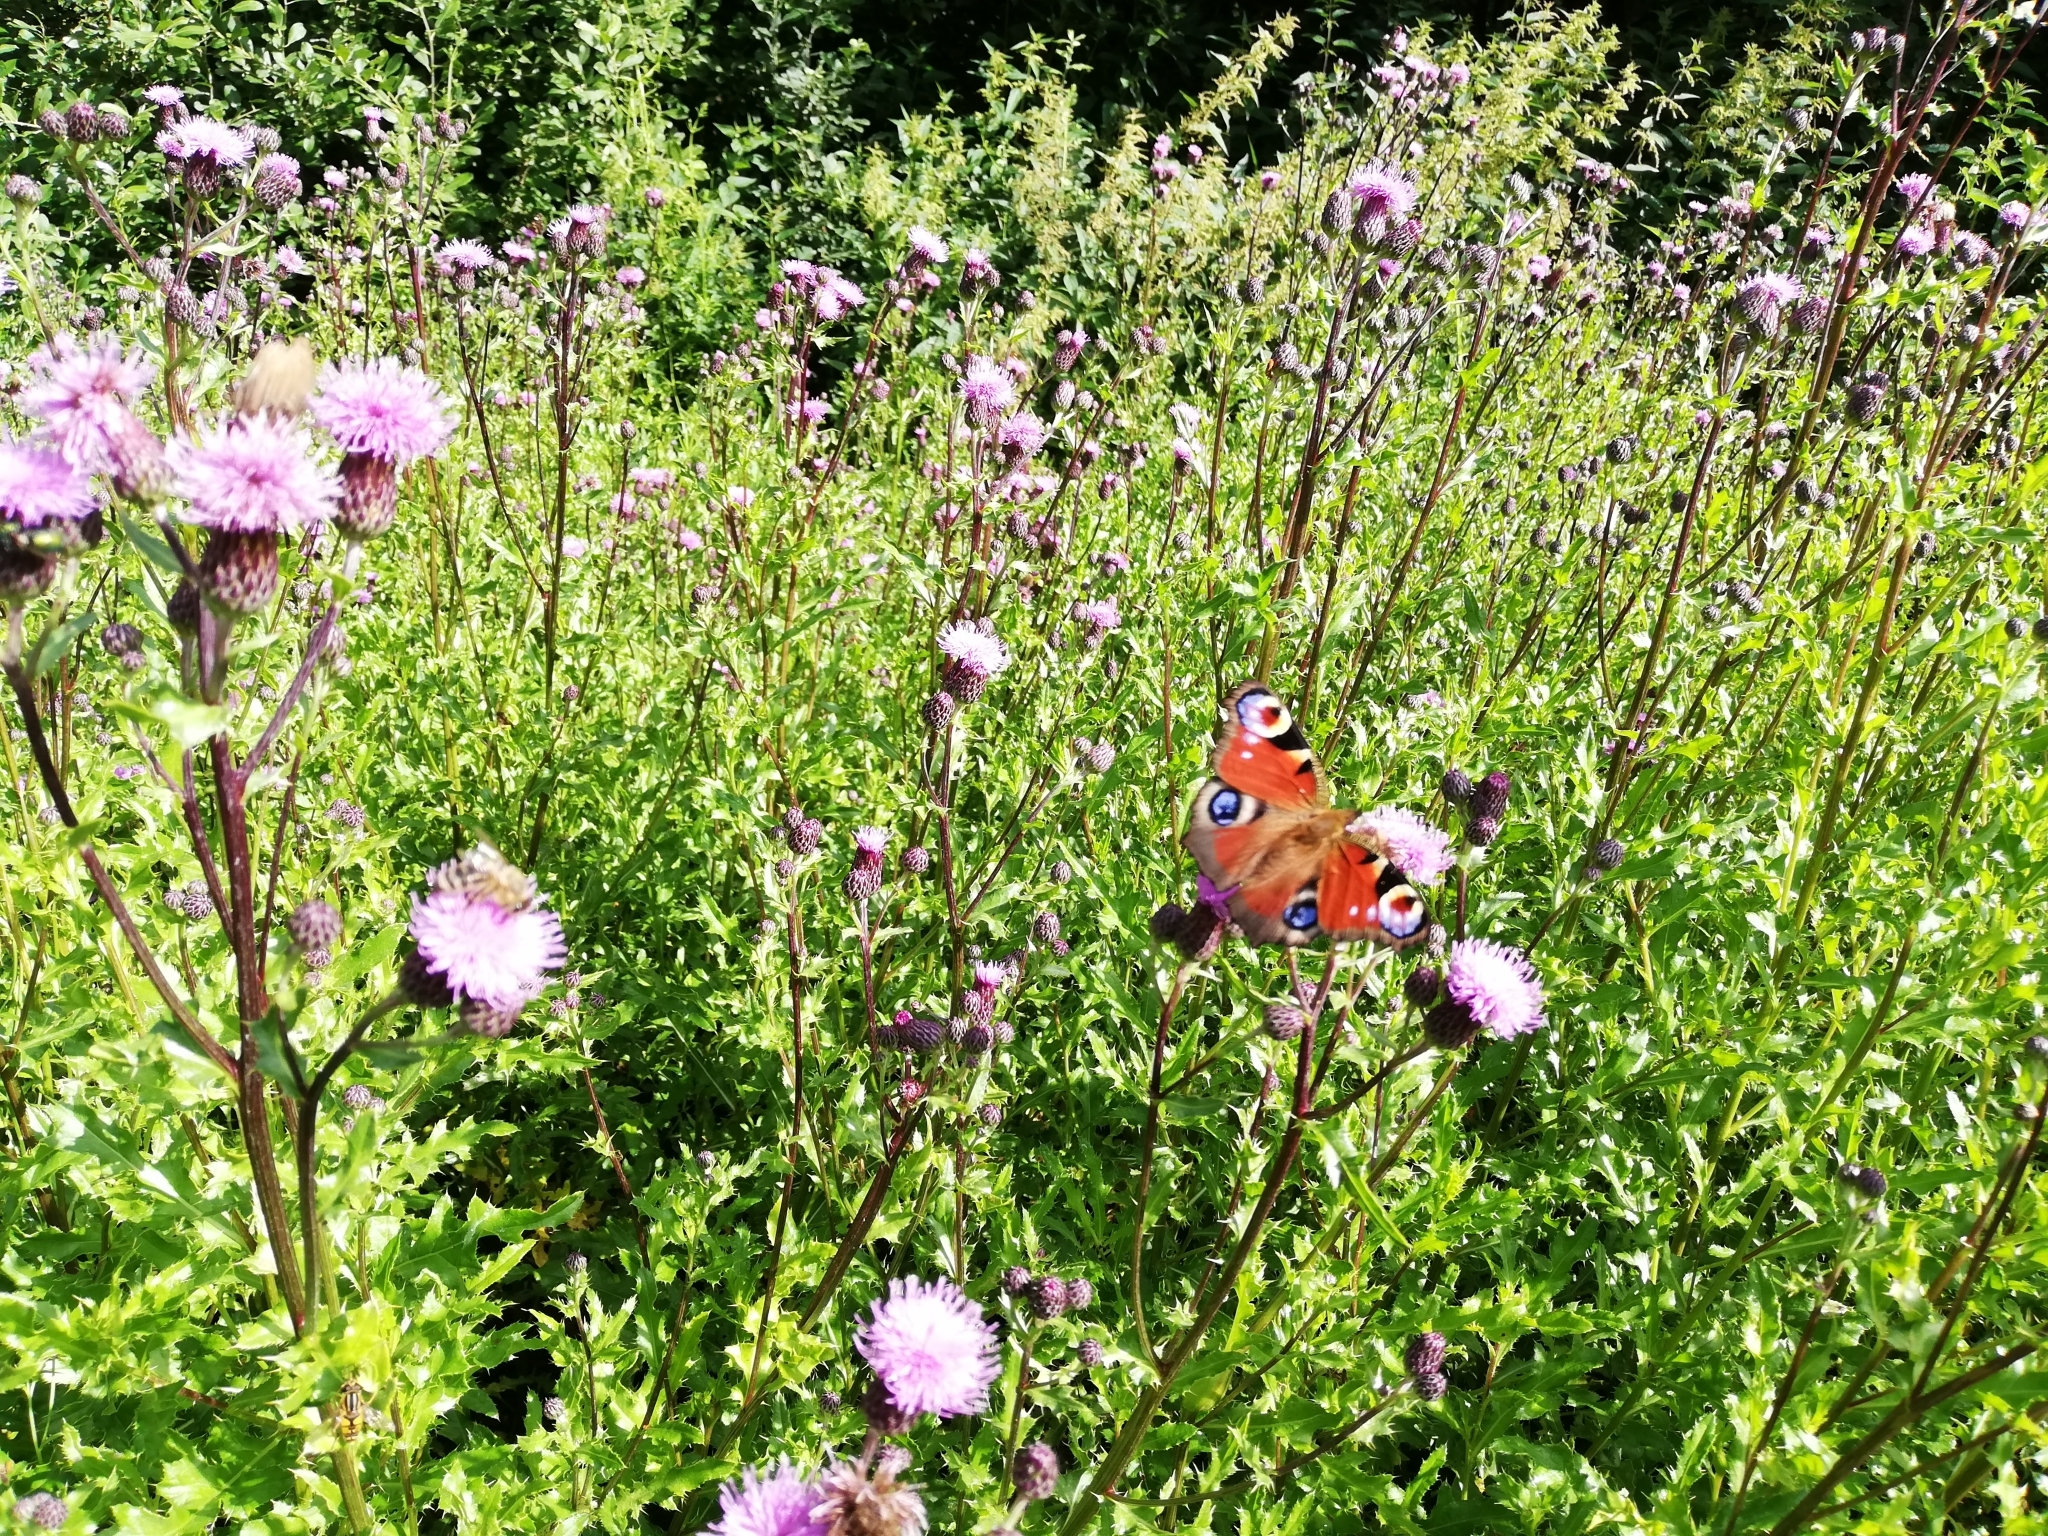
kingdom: Animalia
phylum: Arthropoda
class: Insecta
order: Lepidoptera
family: Nymphalidae
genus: Aglais
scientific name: Aglais io
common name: Peacock
